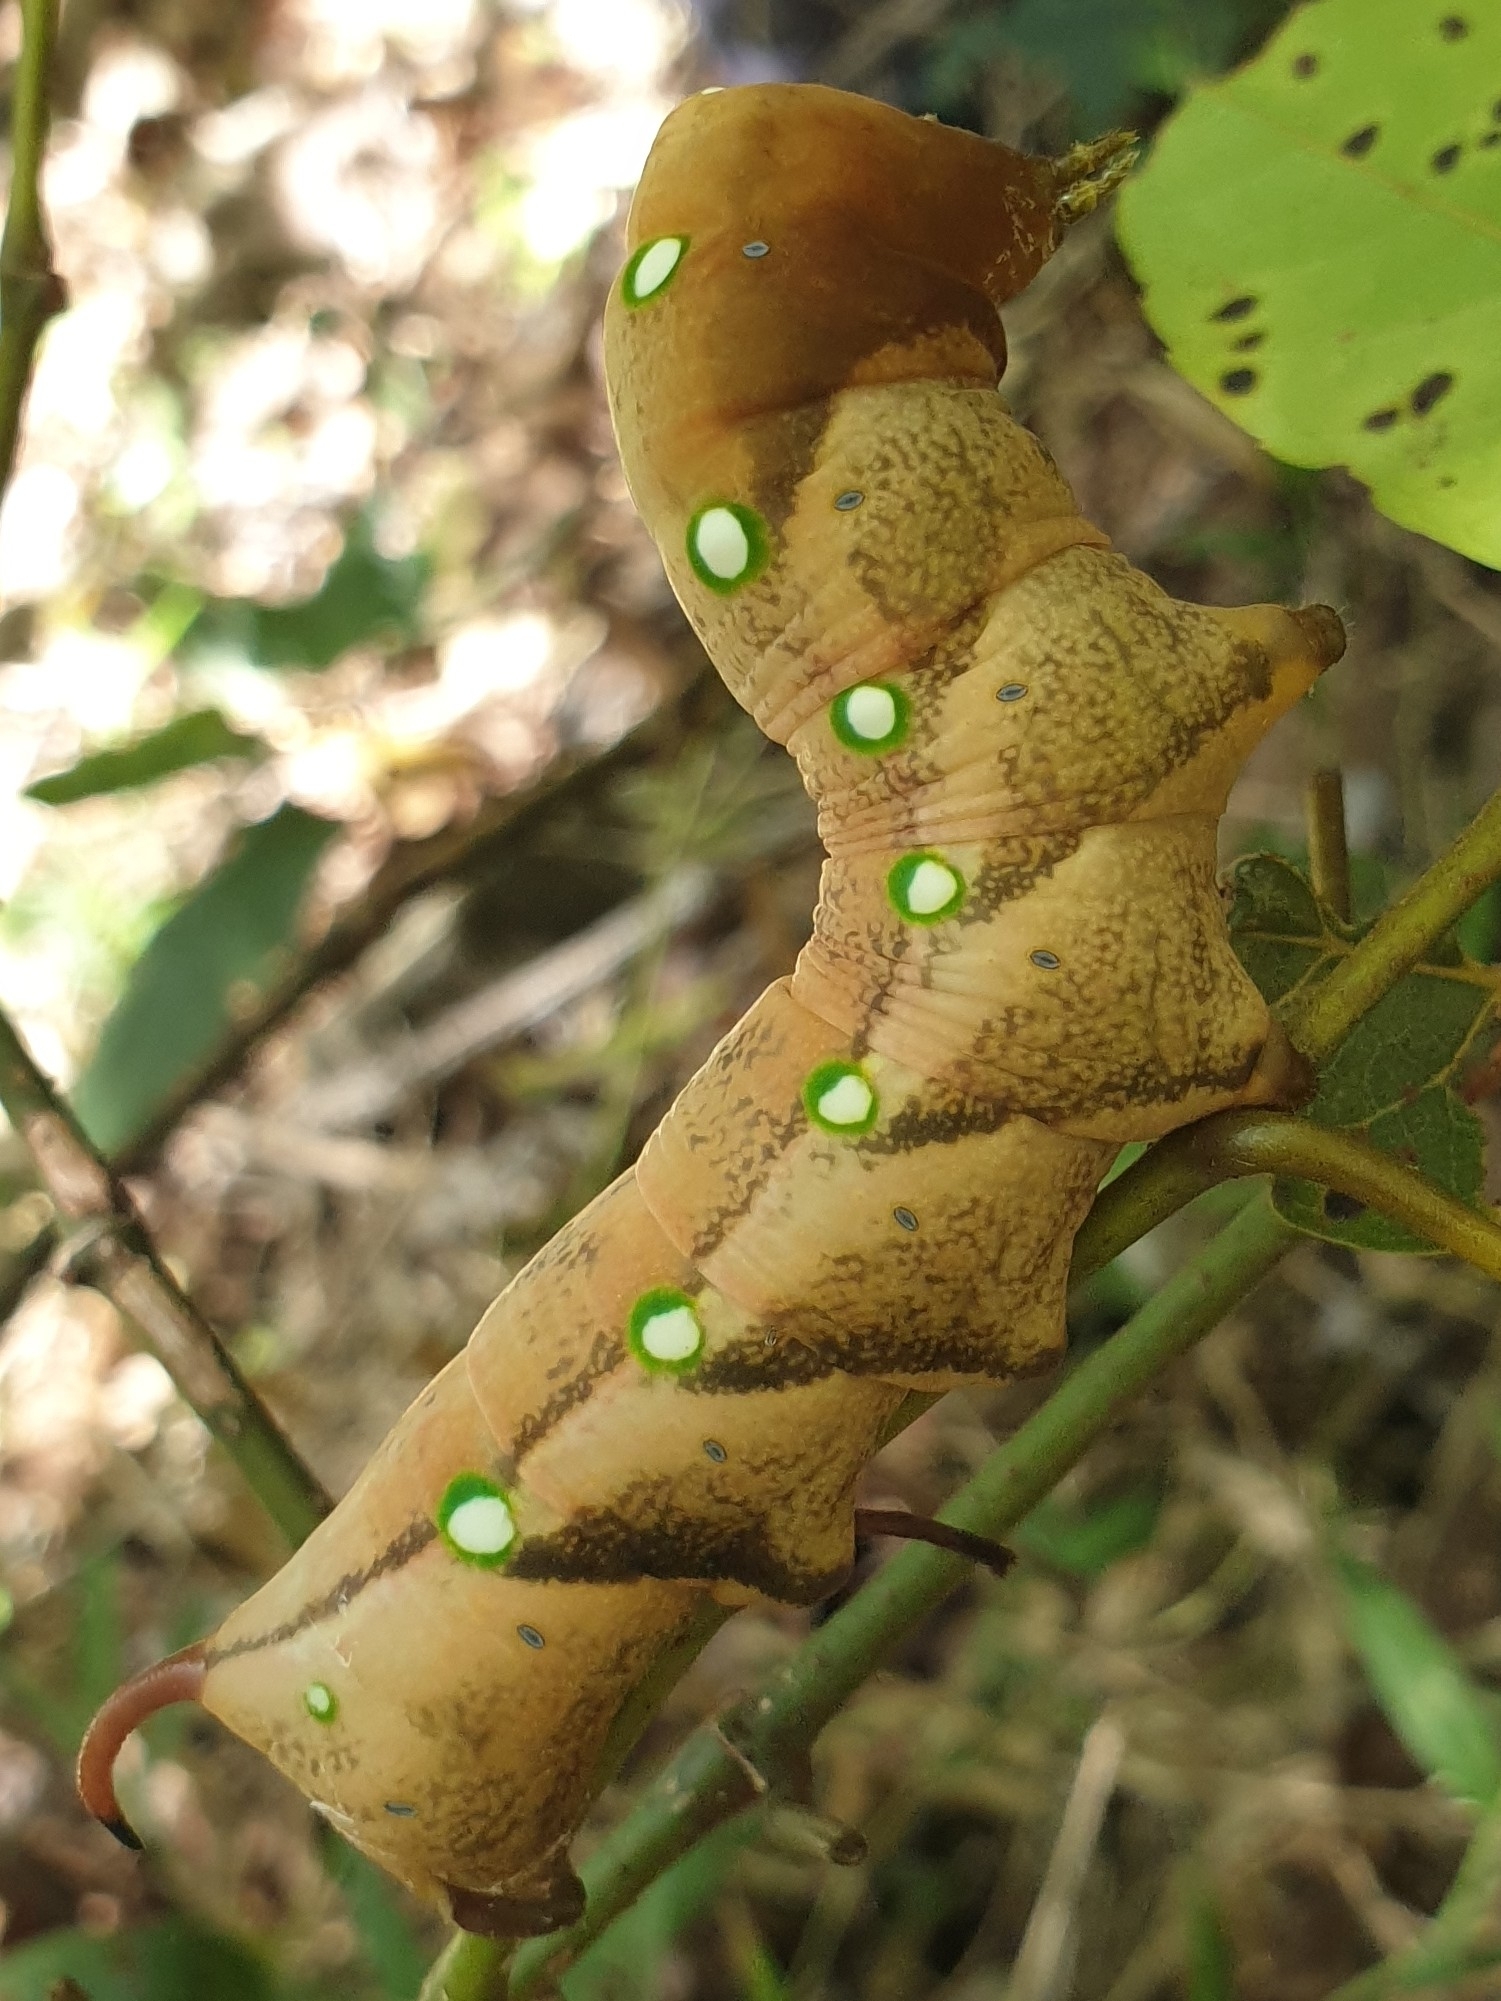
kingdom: Animalia
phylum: Arthropoda
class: Insecta
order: Lepidoptera
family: Sphingidae
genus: Gnathothlibus
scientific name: Gnathothlibus eras
